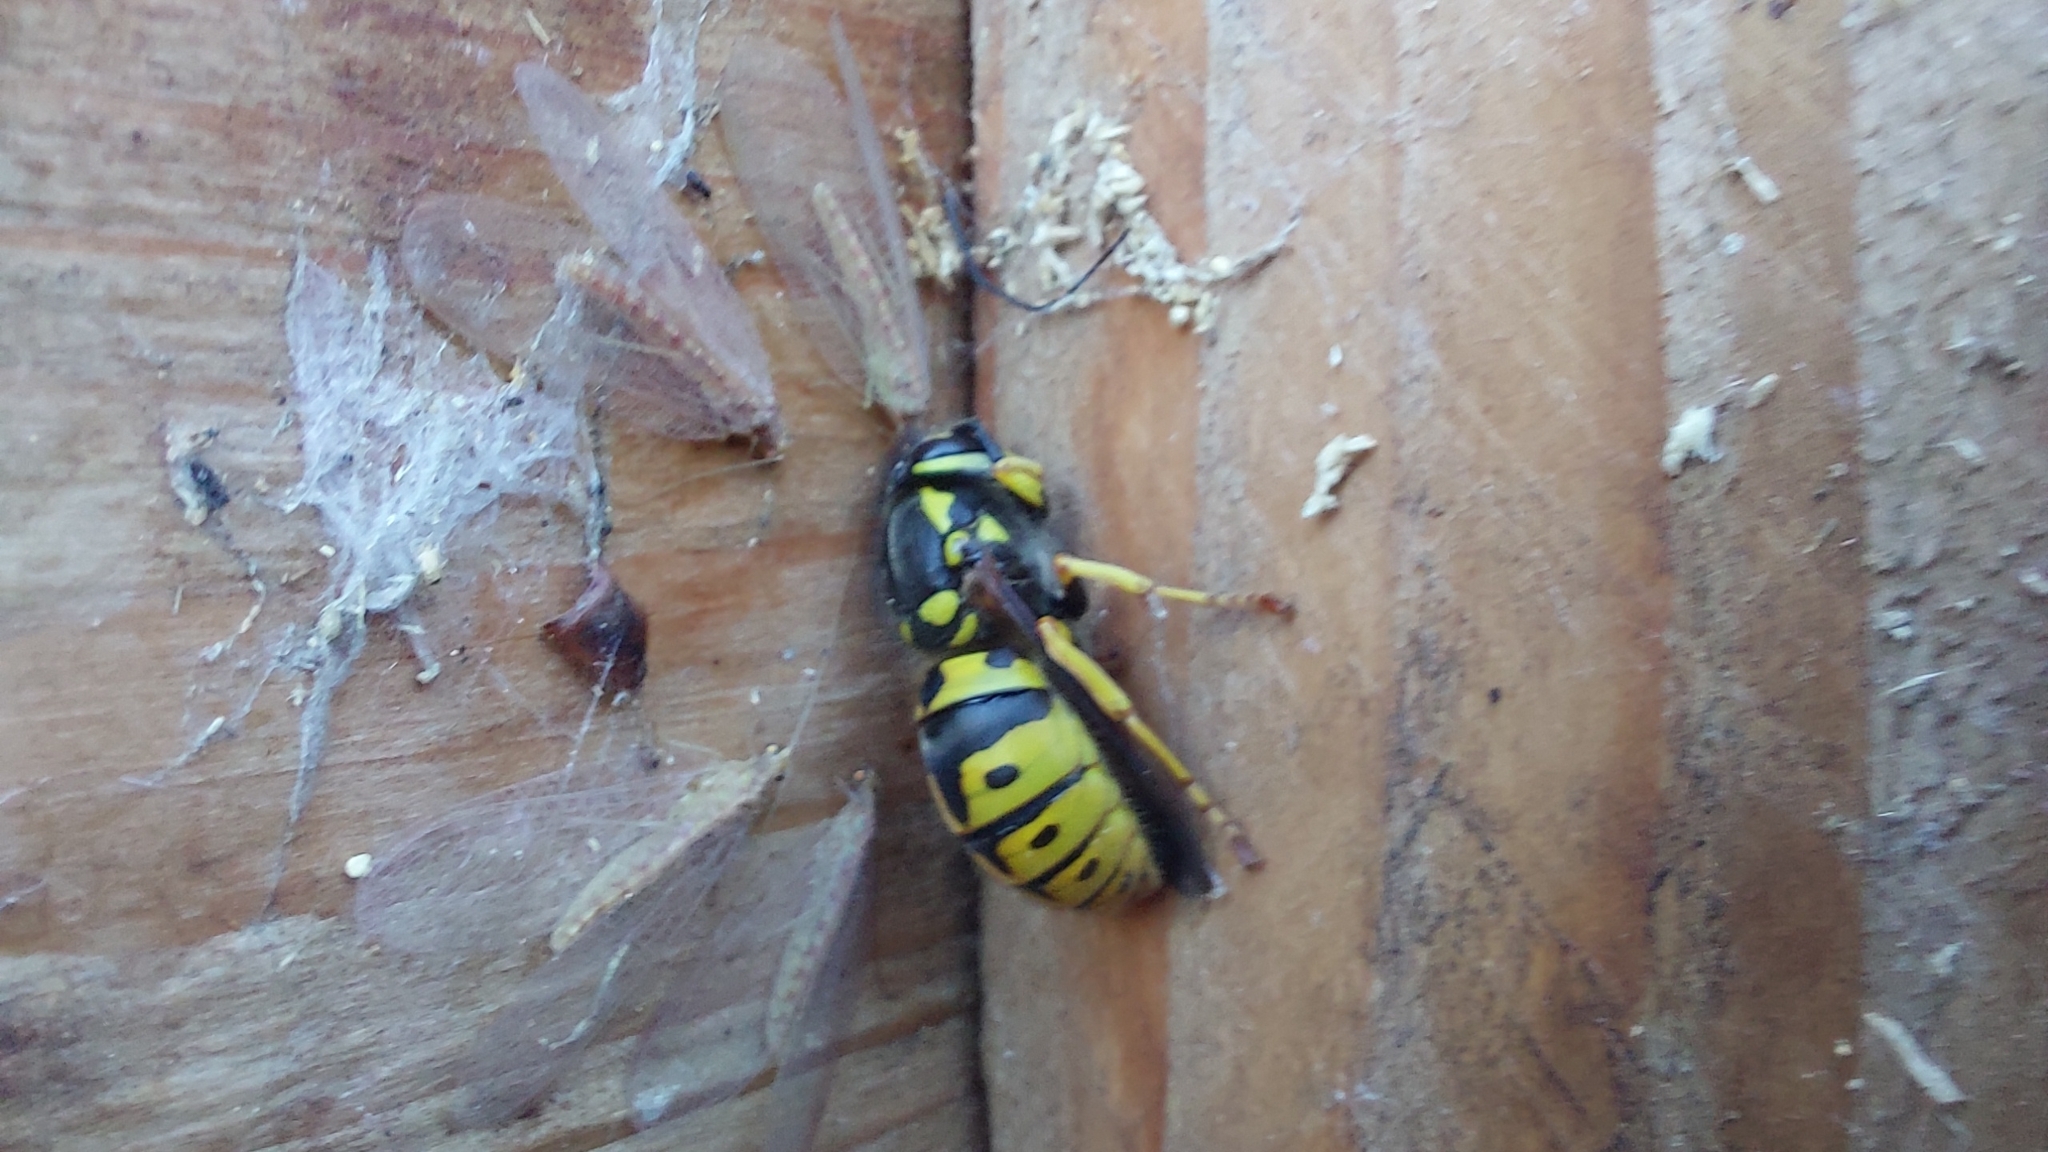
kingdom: Animalia
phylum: Arthropoda
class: Insecta
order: Hymenoptera
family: Vespidae
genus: Vespula
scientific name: Vespula germanica
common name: German wasp
